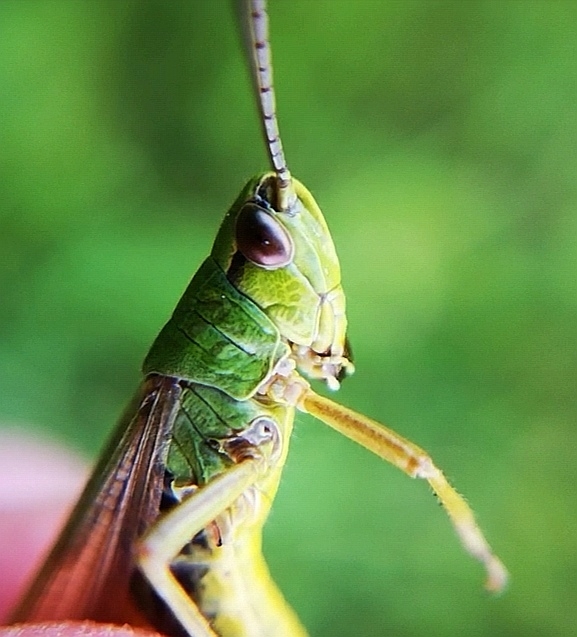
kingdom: Animalia
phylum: Arthropoda
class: Insecta
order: Orthoptera
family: Acrididae
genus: Pseudochorthippus
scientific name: Pseudochorthippus parallelus
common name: Meadow grasshopper
